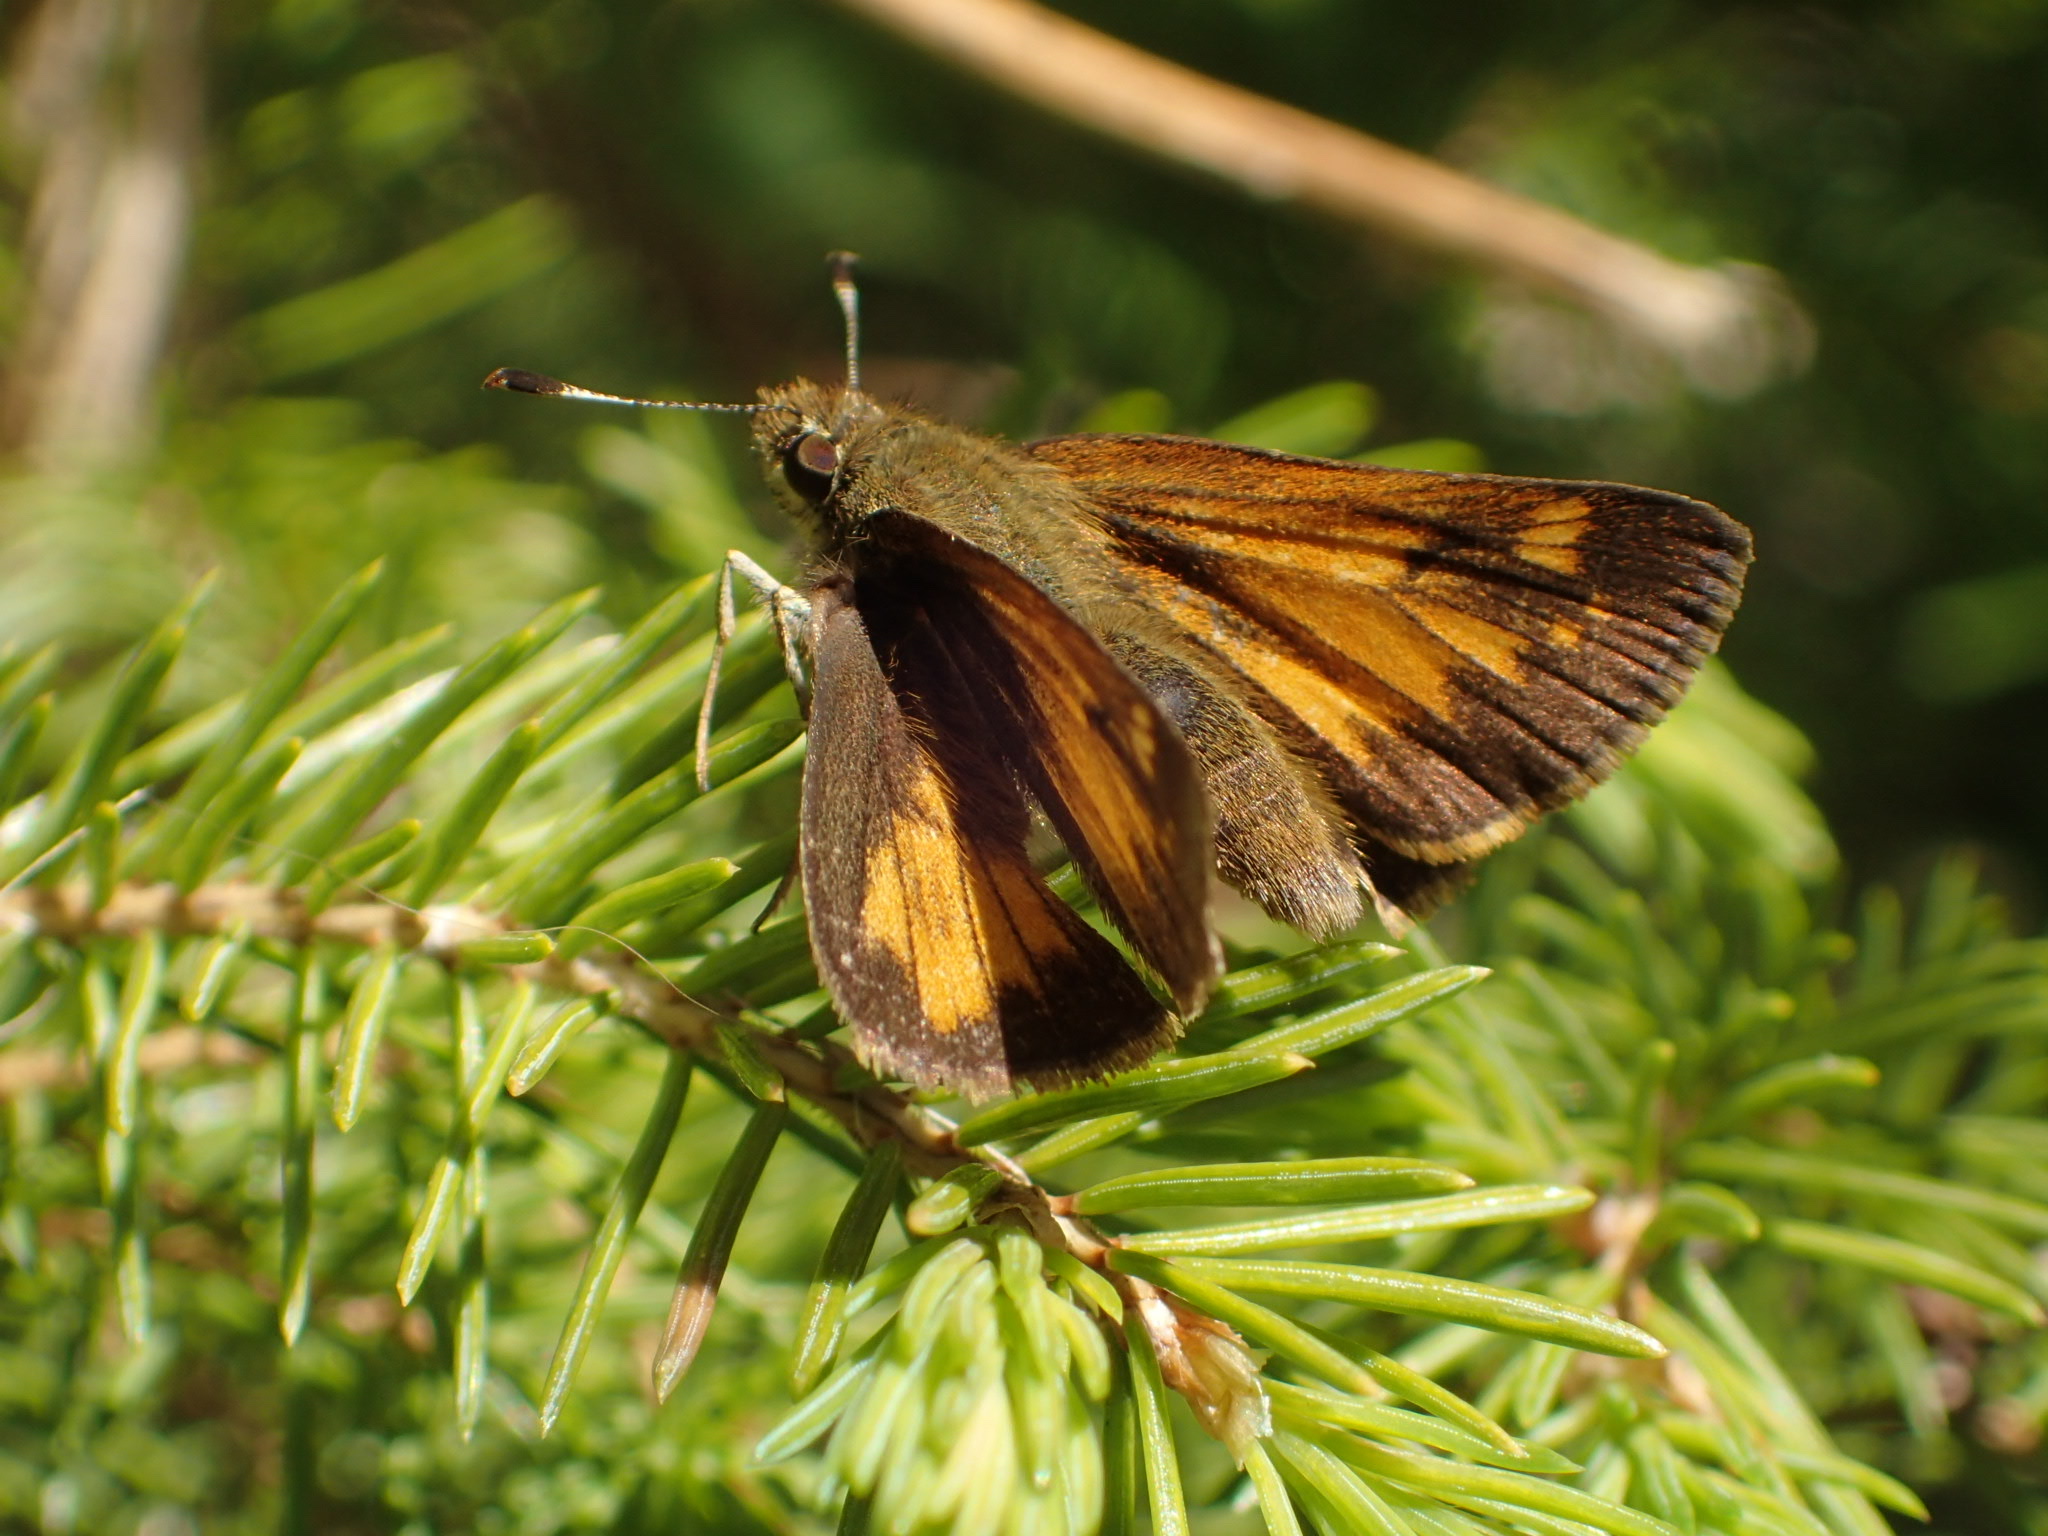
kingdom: Animalia
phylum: Arthropoda
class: Insecta
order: Lepidoptera
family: Hesperiidae
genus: Lon
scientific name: Lon hobomok
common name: Hobomok skipper
